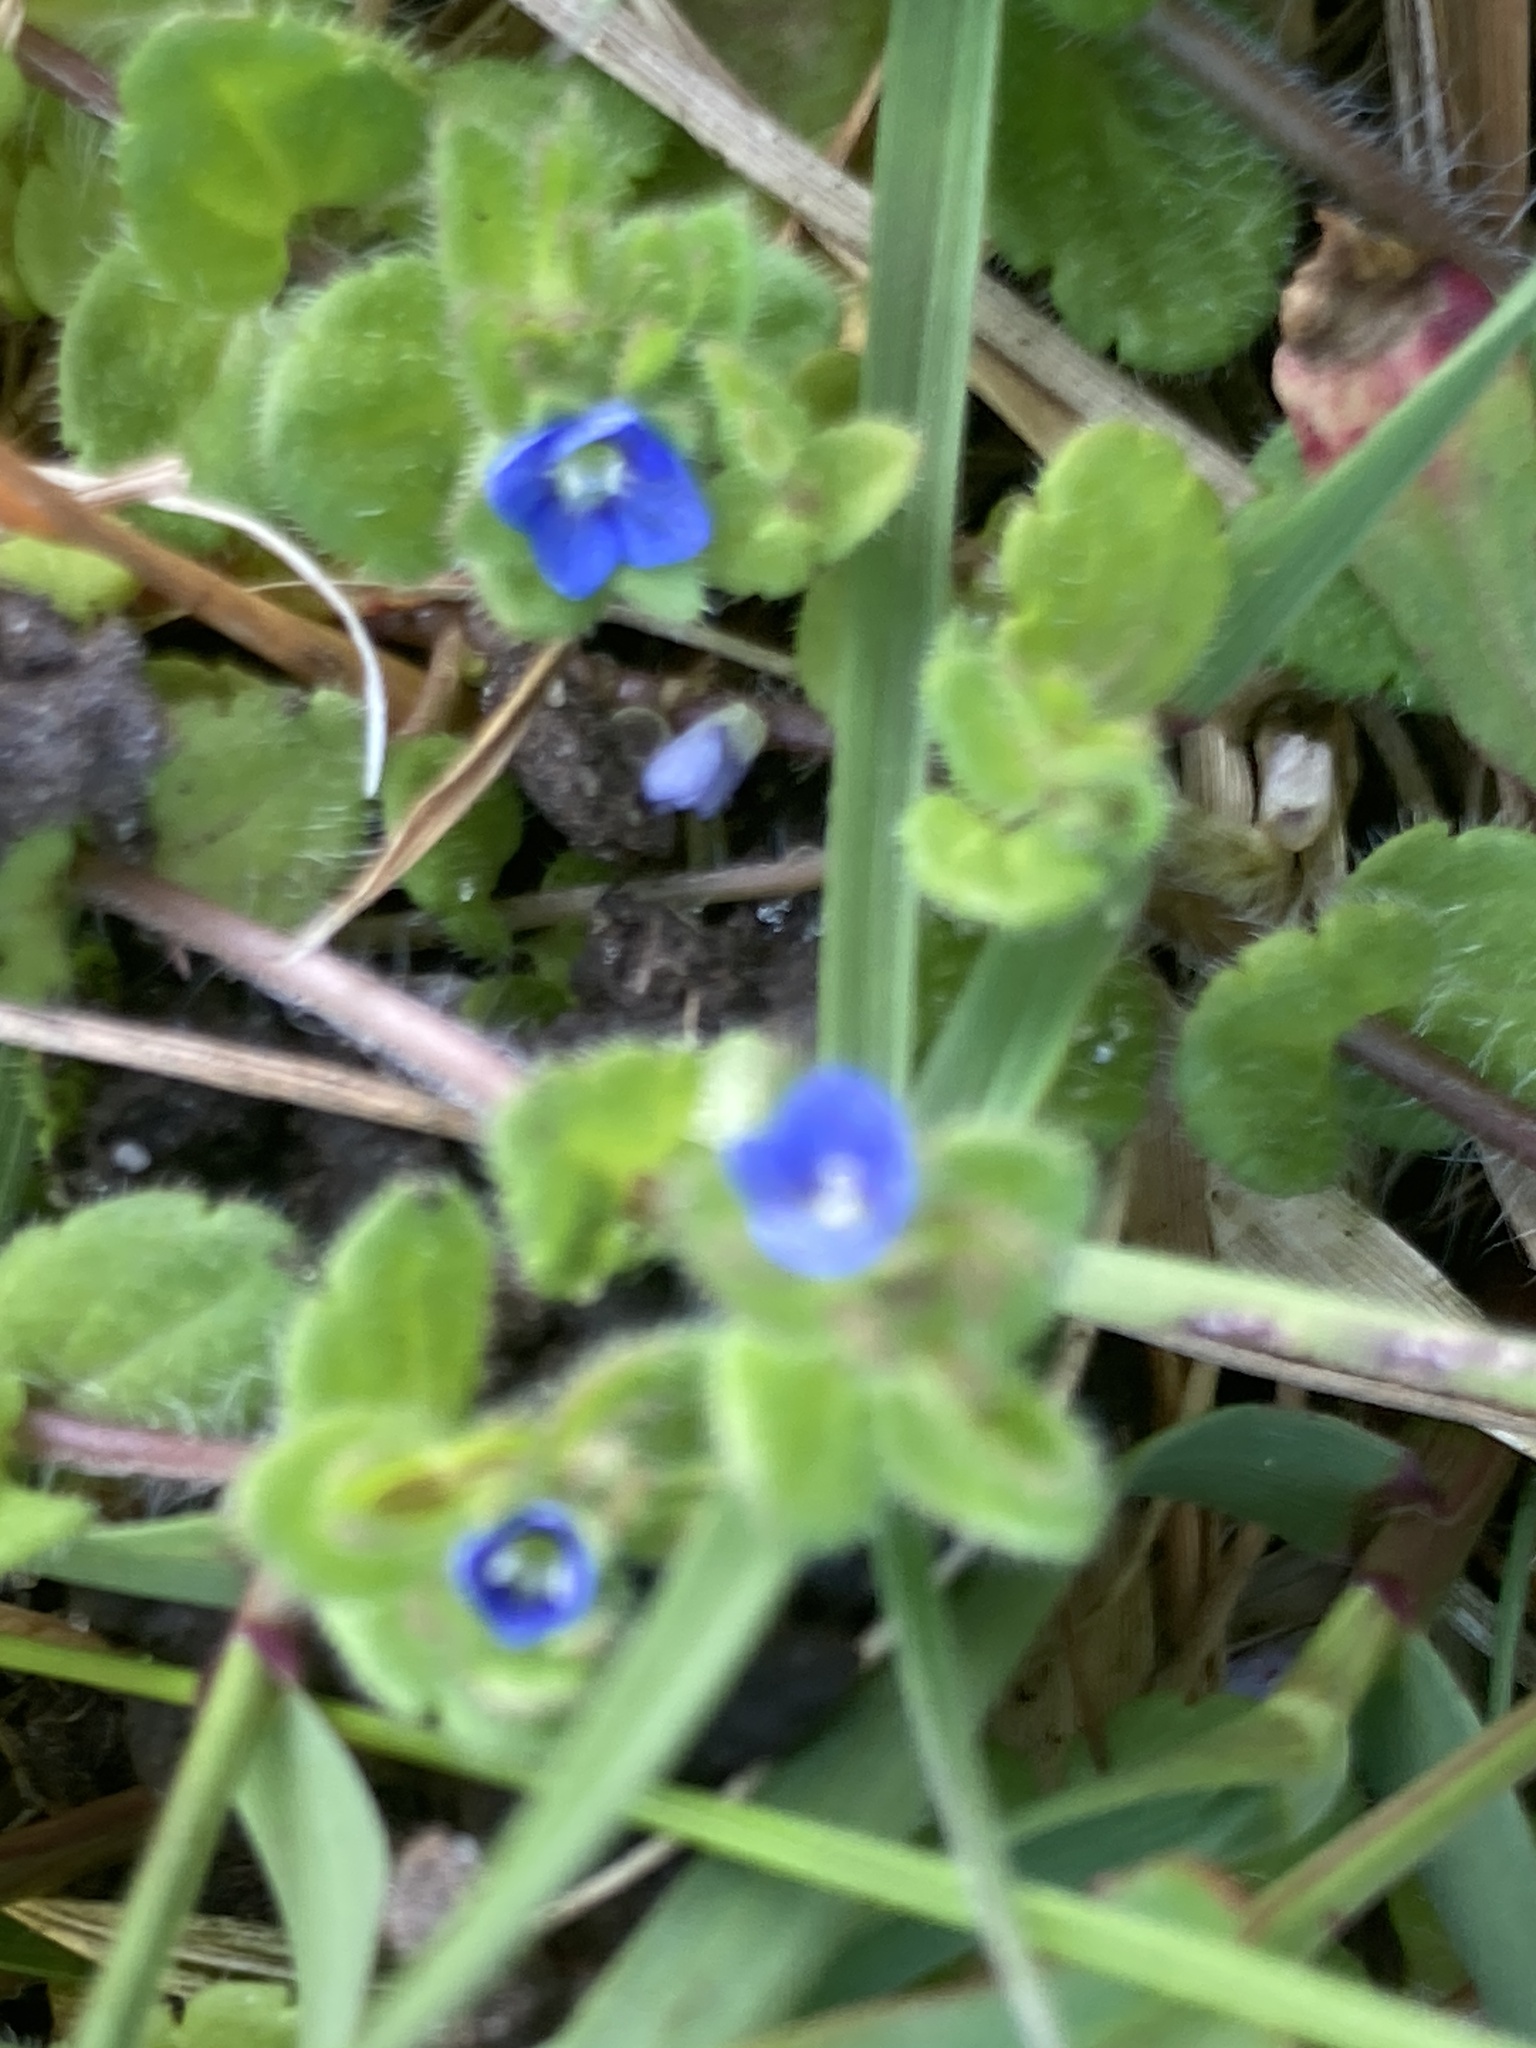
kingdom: Plantae
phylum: Tracheophyta
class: Magnoliopsida
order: Lamiales
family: Plantaginaceae
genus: Veronica
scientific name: Veronica arvensis
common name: Corn speedwell
